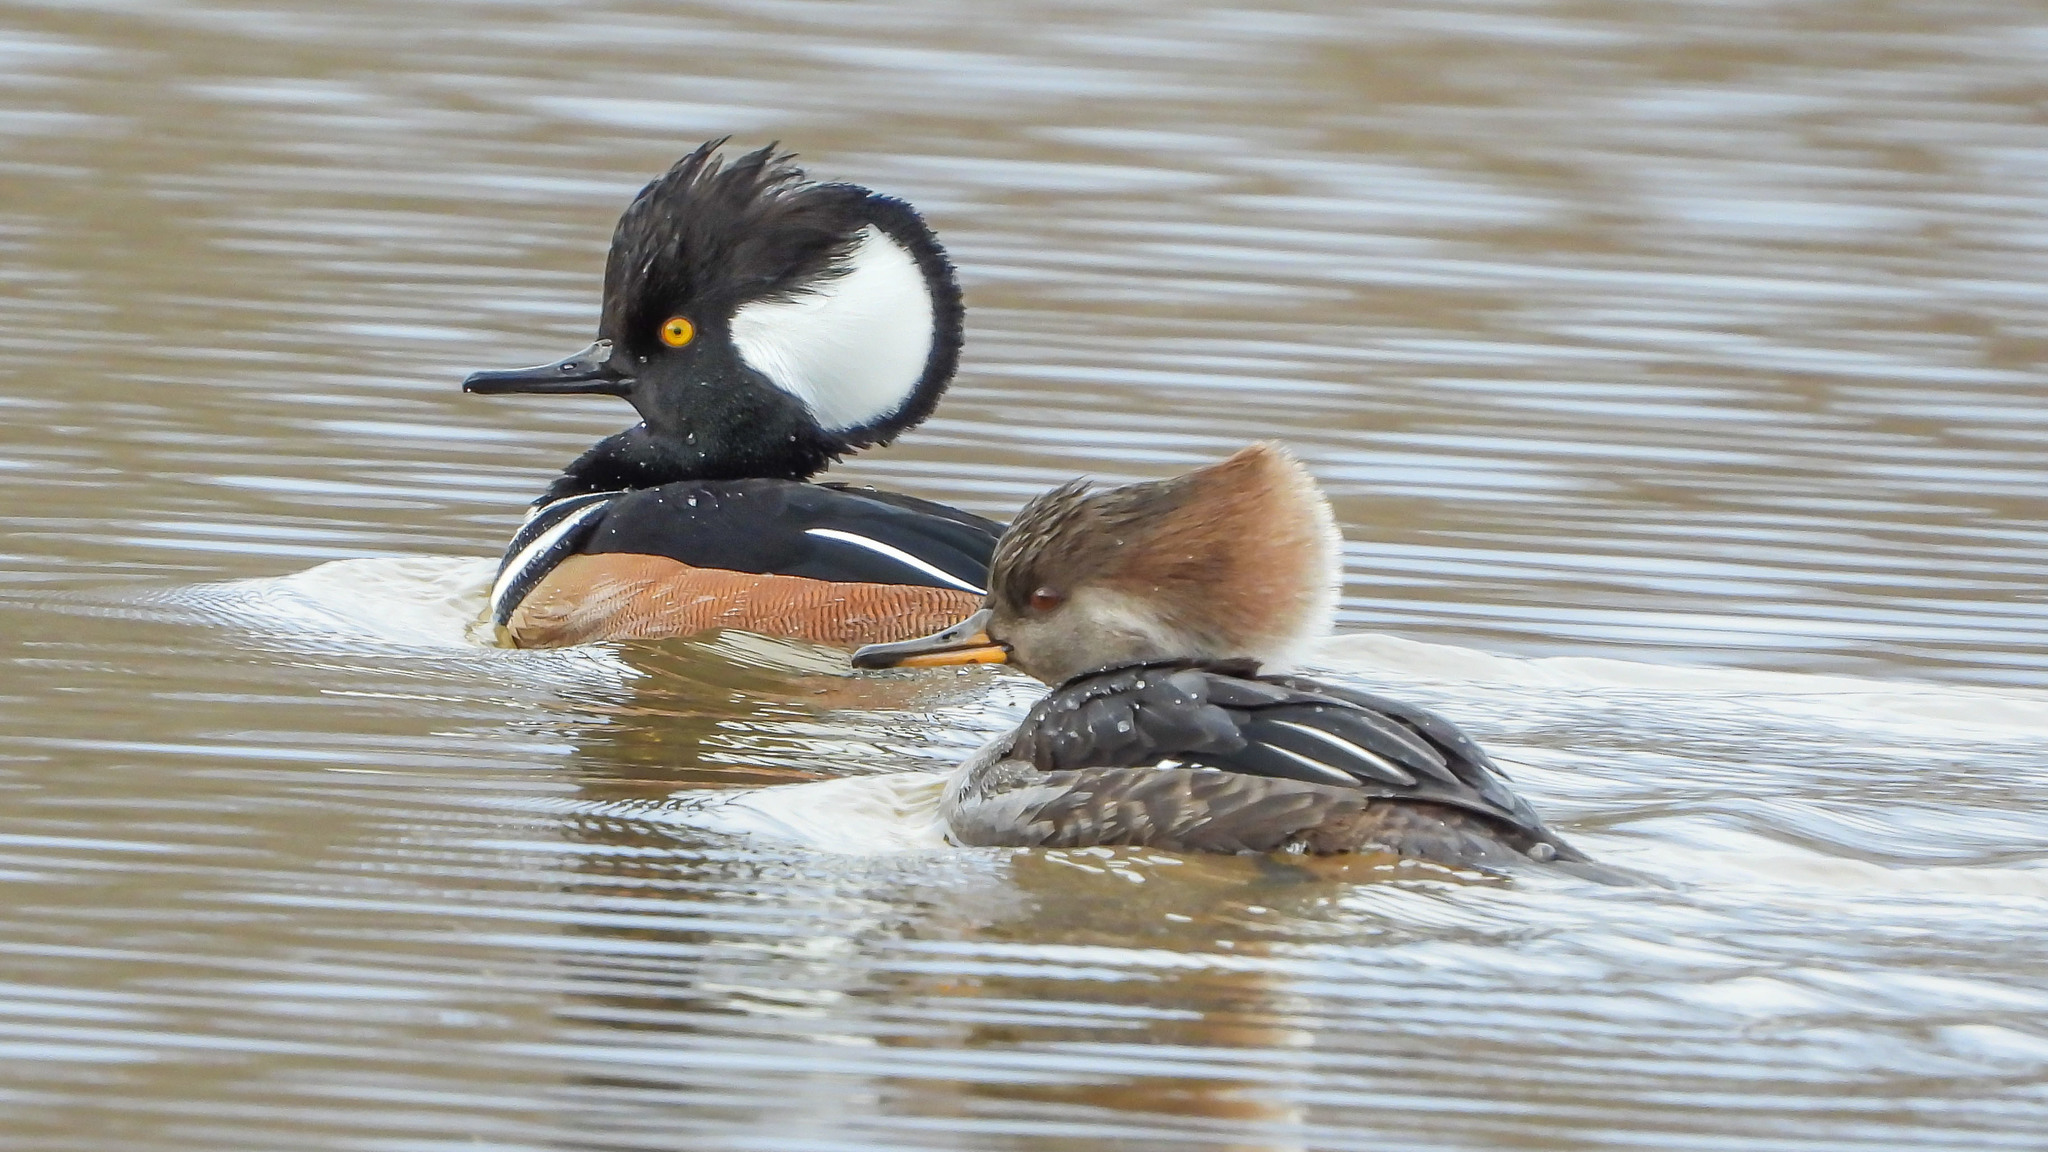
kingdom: Animalia
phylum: Chordata
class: Aves
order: Anseriformes
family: Anatidae
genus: Lophodytes
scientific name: Lophodytes cucullatus
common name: Hooded merganser
